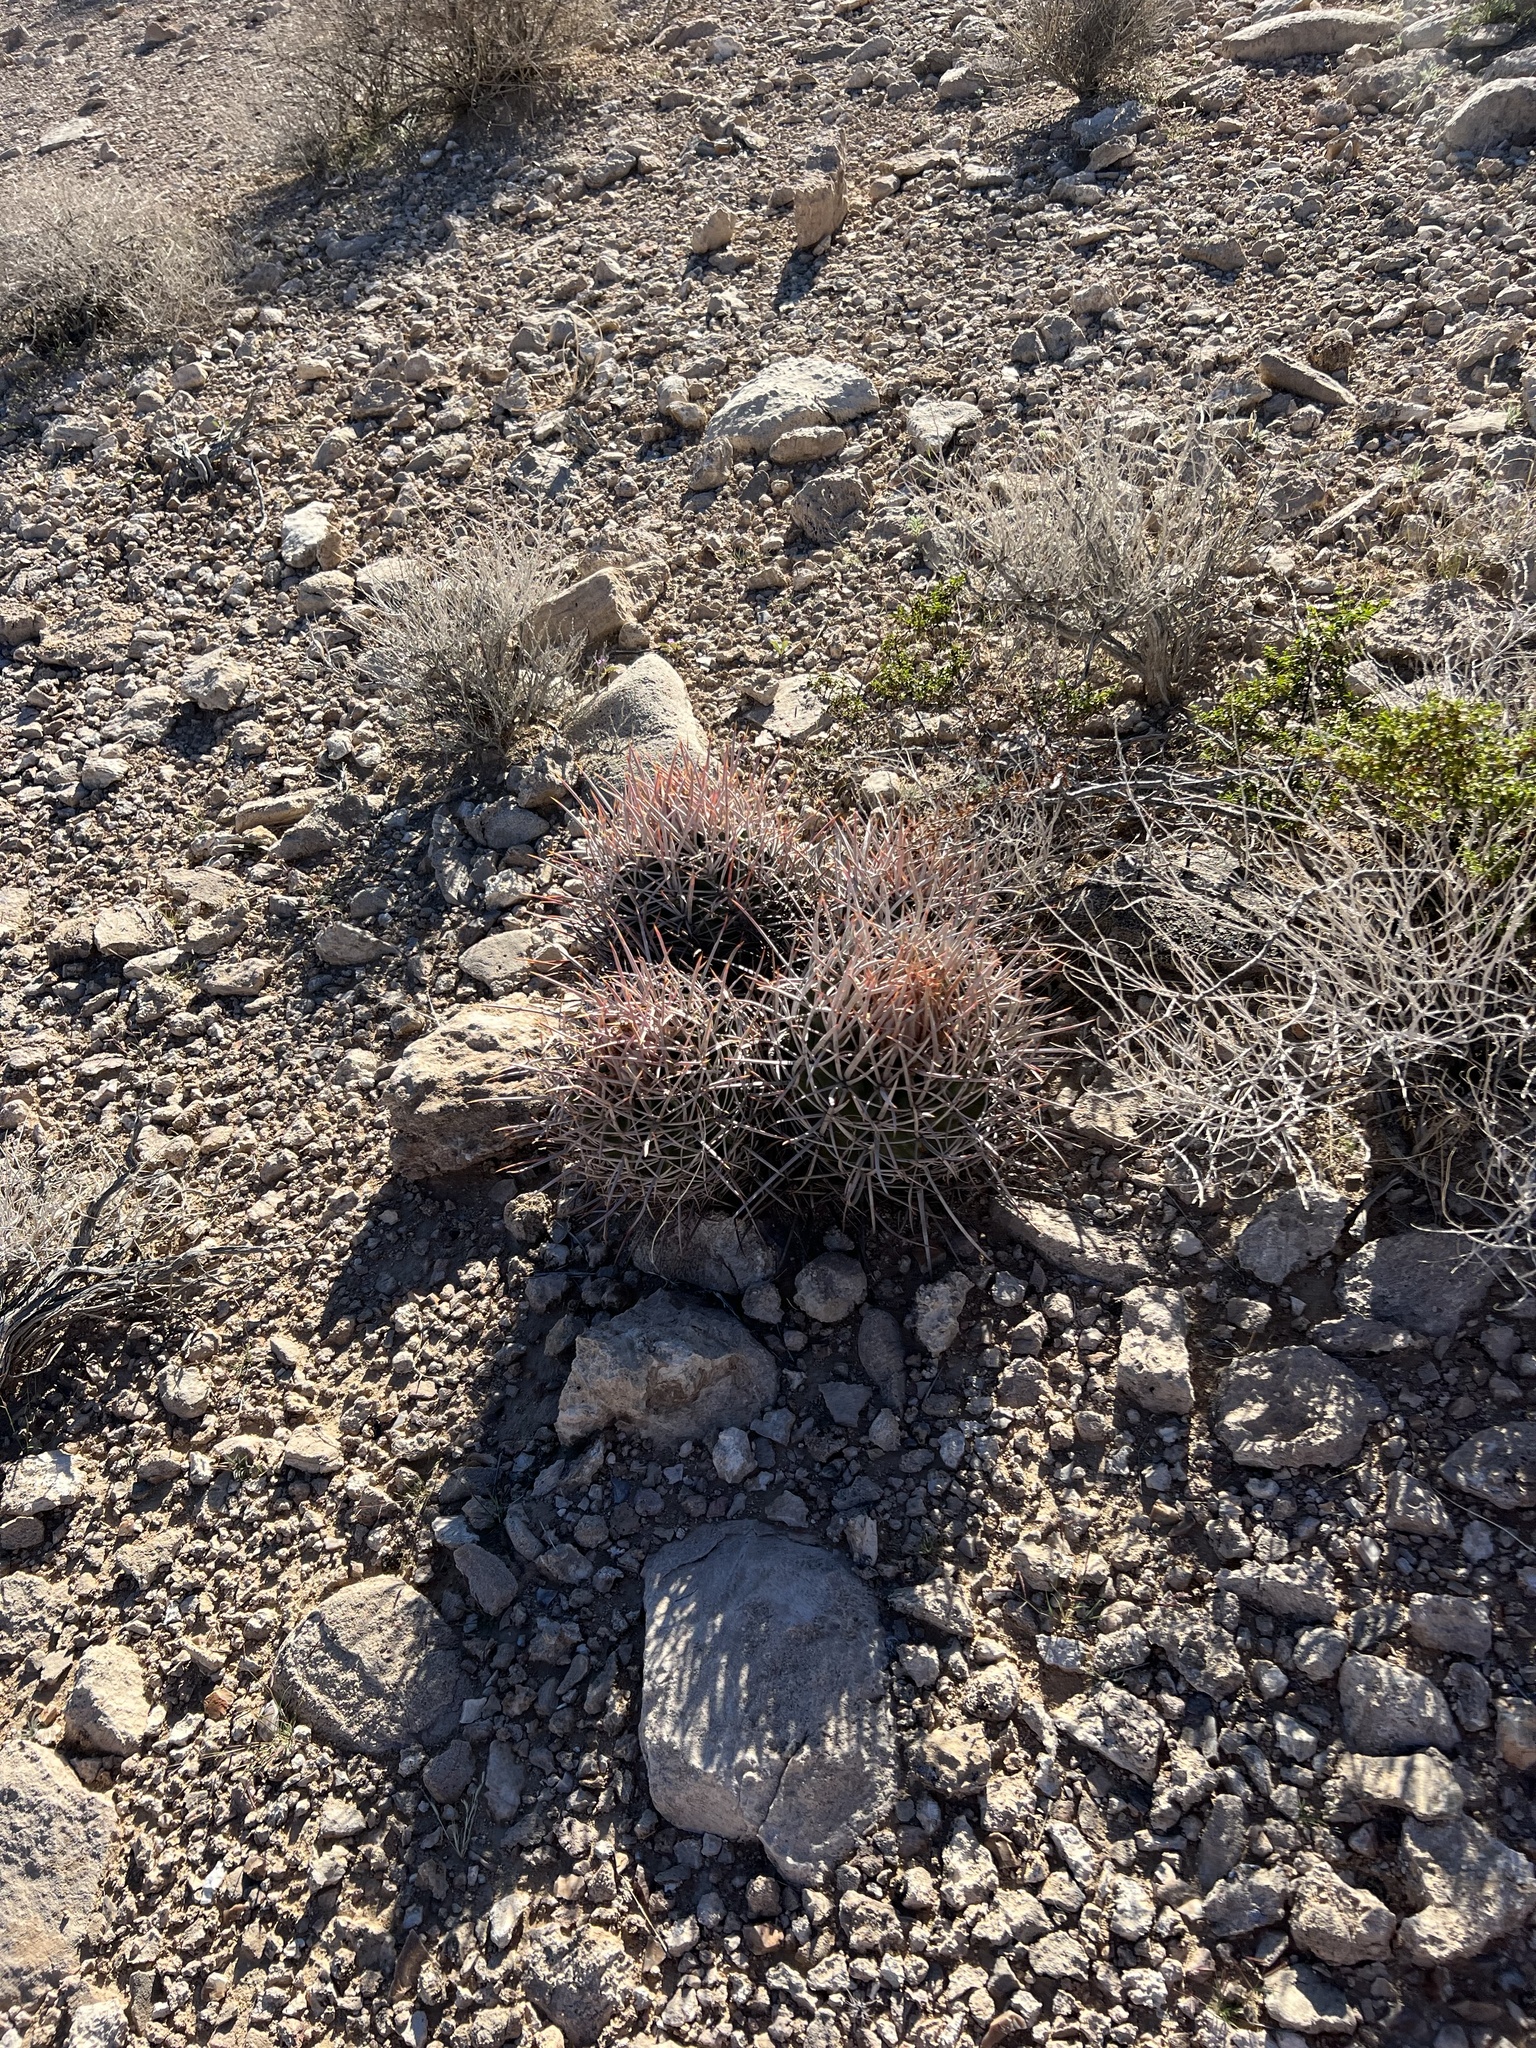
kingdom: Plantae
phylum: Tracheophyta
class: Magnoliopsida
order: Caryophyllales
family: Cactaceae
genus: Echinocactus
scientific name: Echinocactus polycephalus
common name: Cottontop cactus
